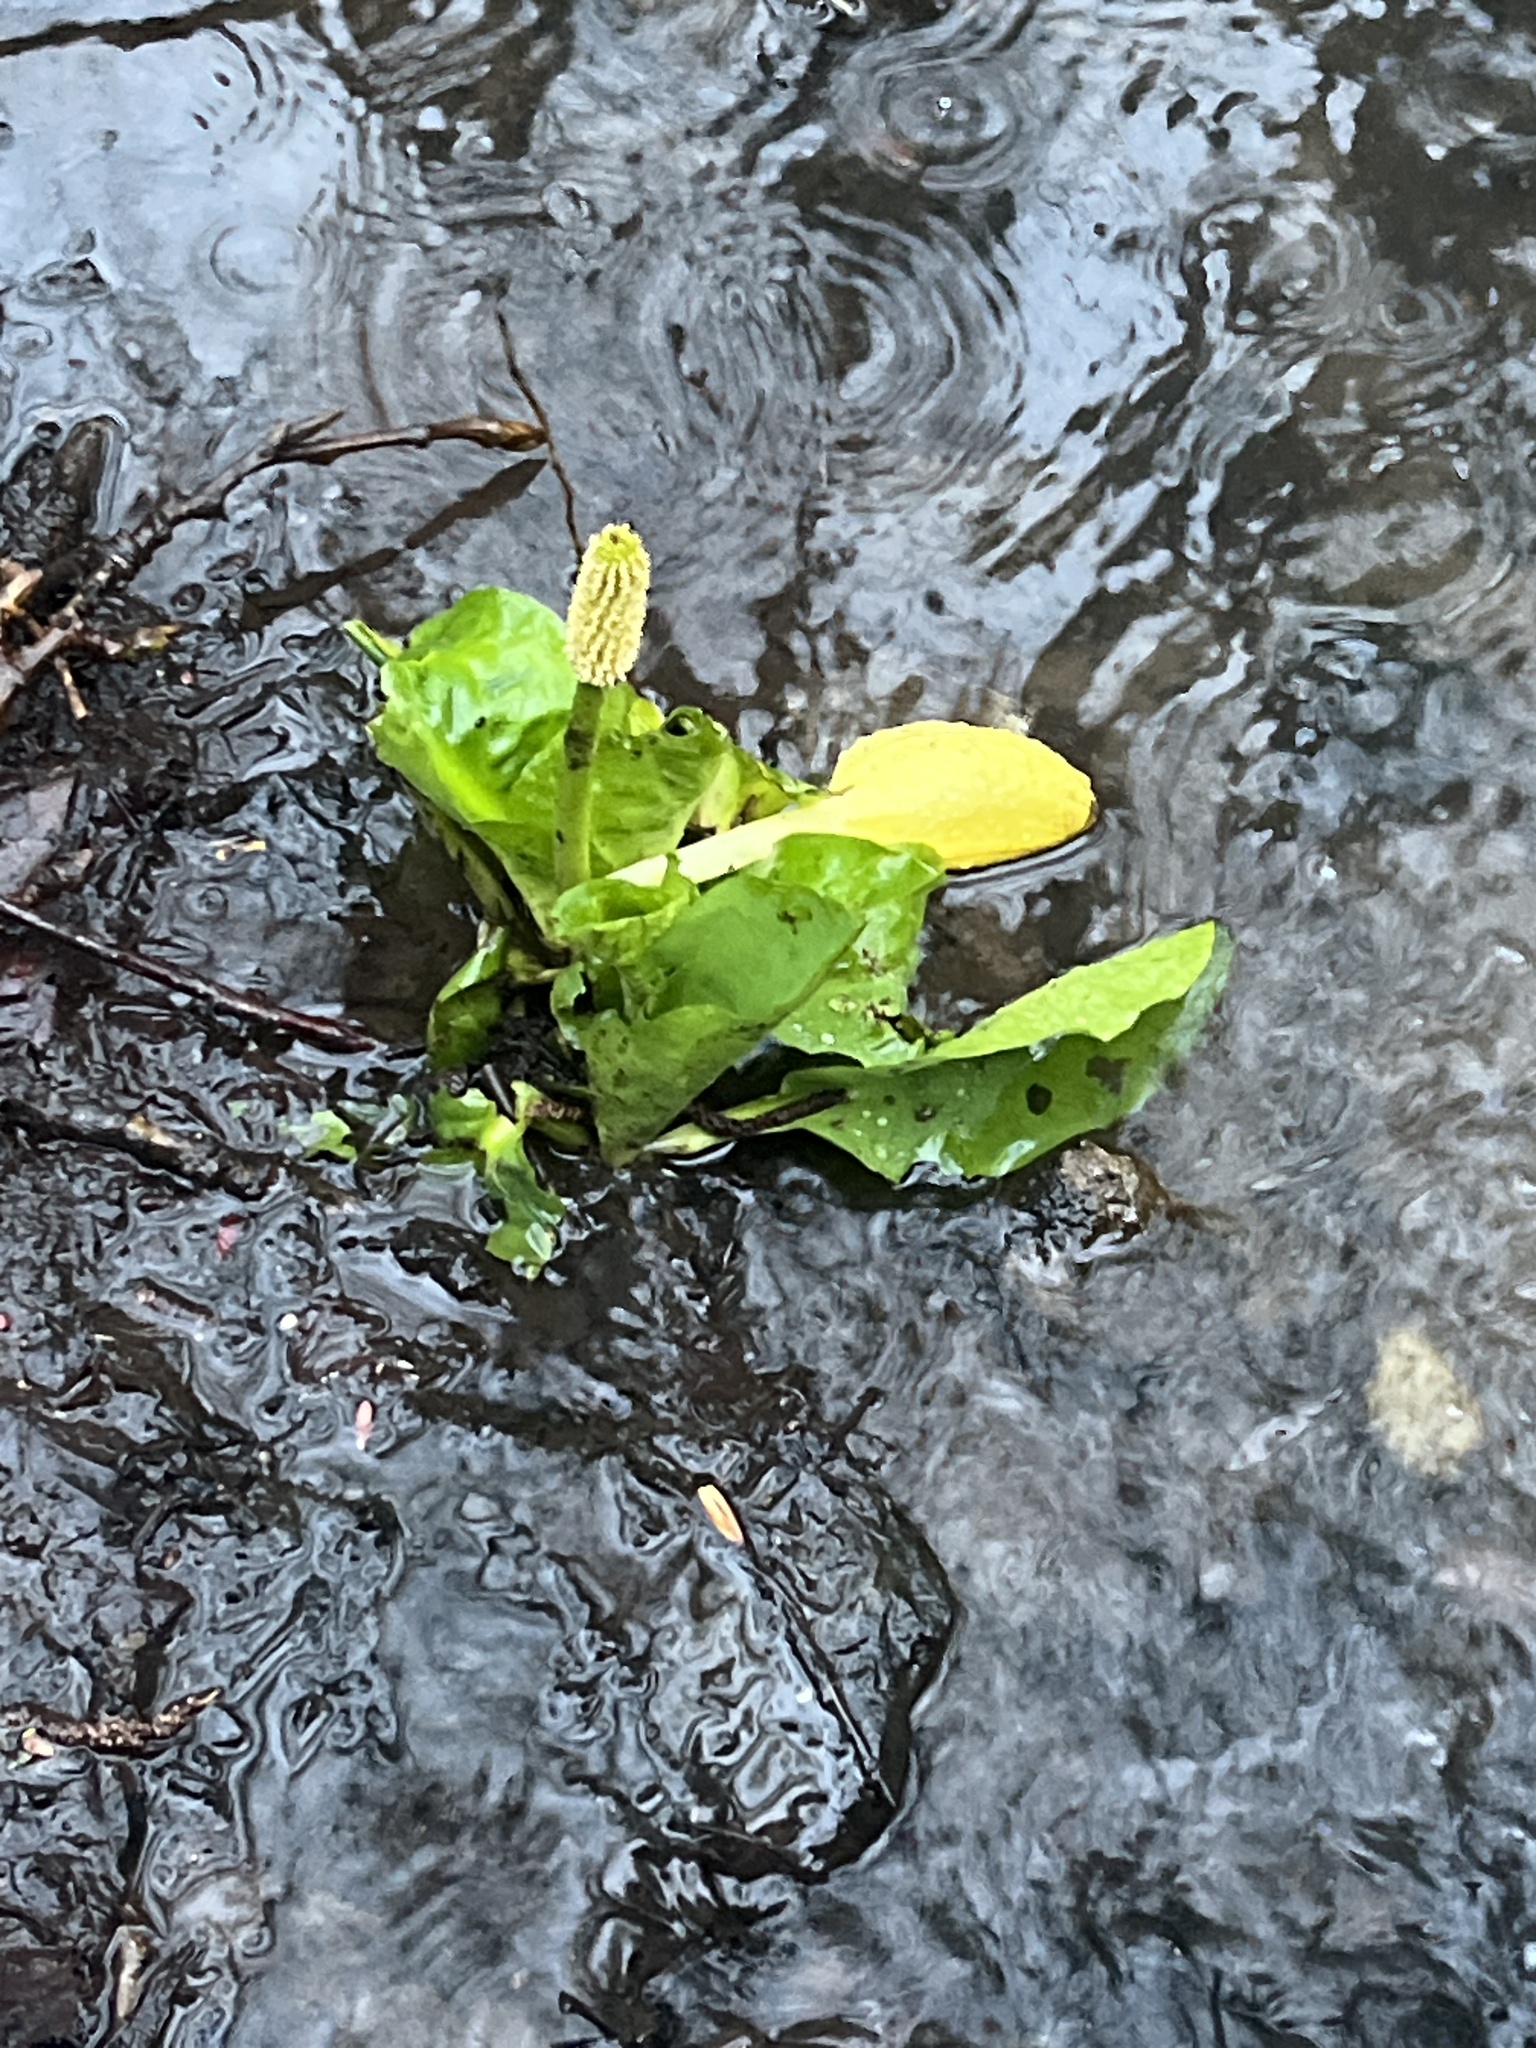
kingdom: Plantae
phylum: Tracheophyta
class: Liliopsida
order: Alismatales
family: Araceae
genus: Lysichiton
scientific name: Lysichiton americanus
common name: American skunk cabbage
